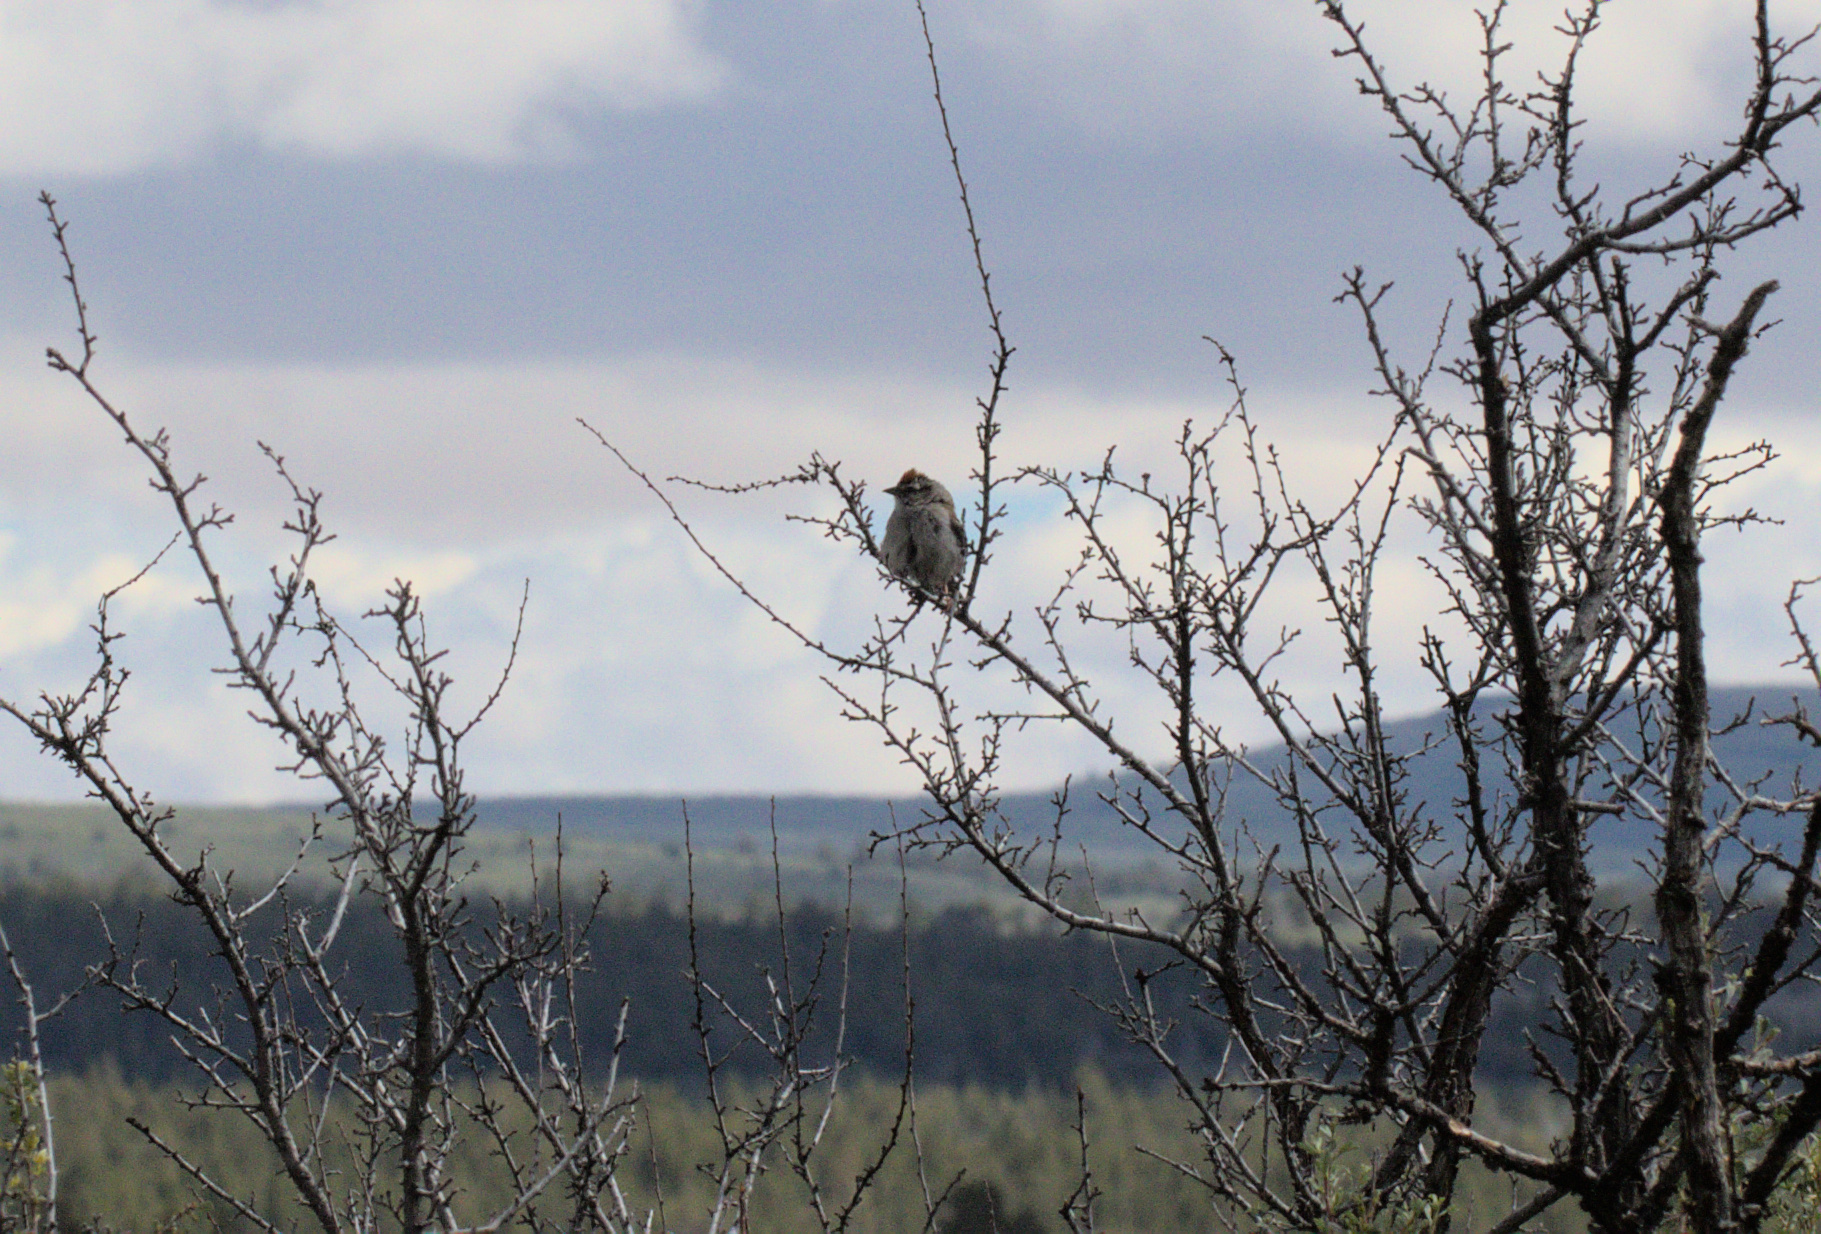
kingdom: Animalia
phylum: Chordata
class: Aves
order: Passeriformes
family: Passerellidae
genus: Spizella
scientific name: Spizella passerina
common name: Chipping sparrow
